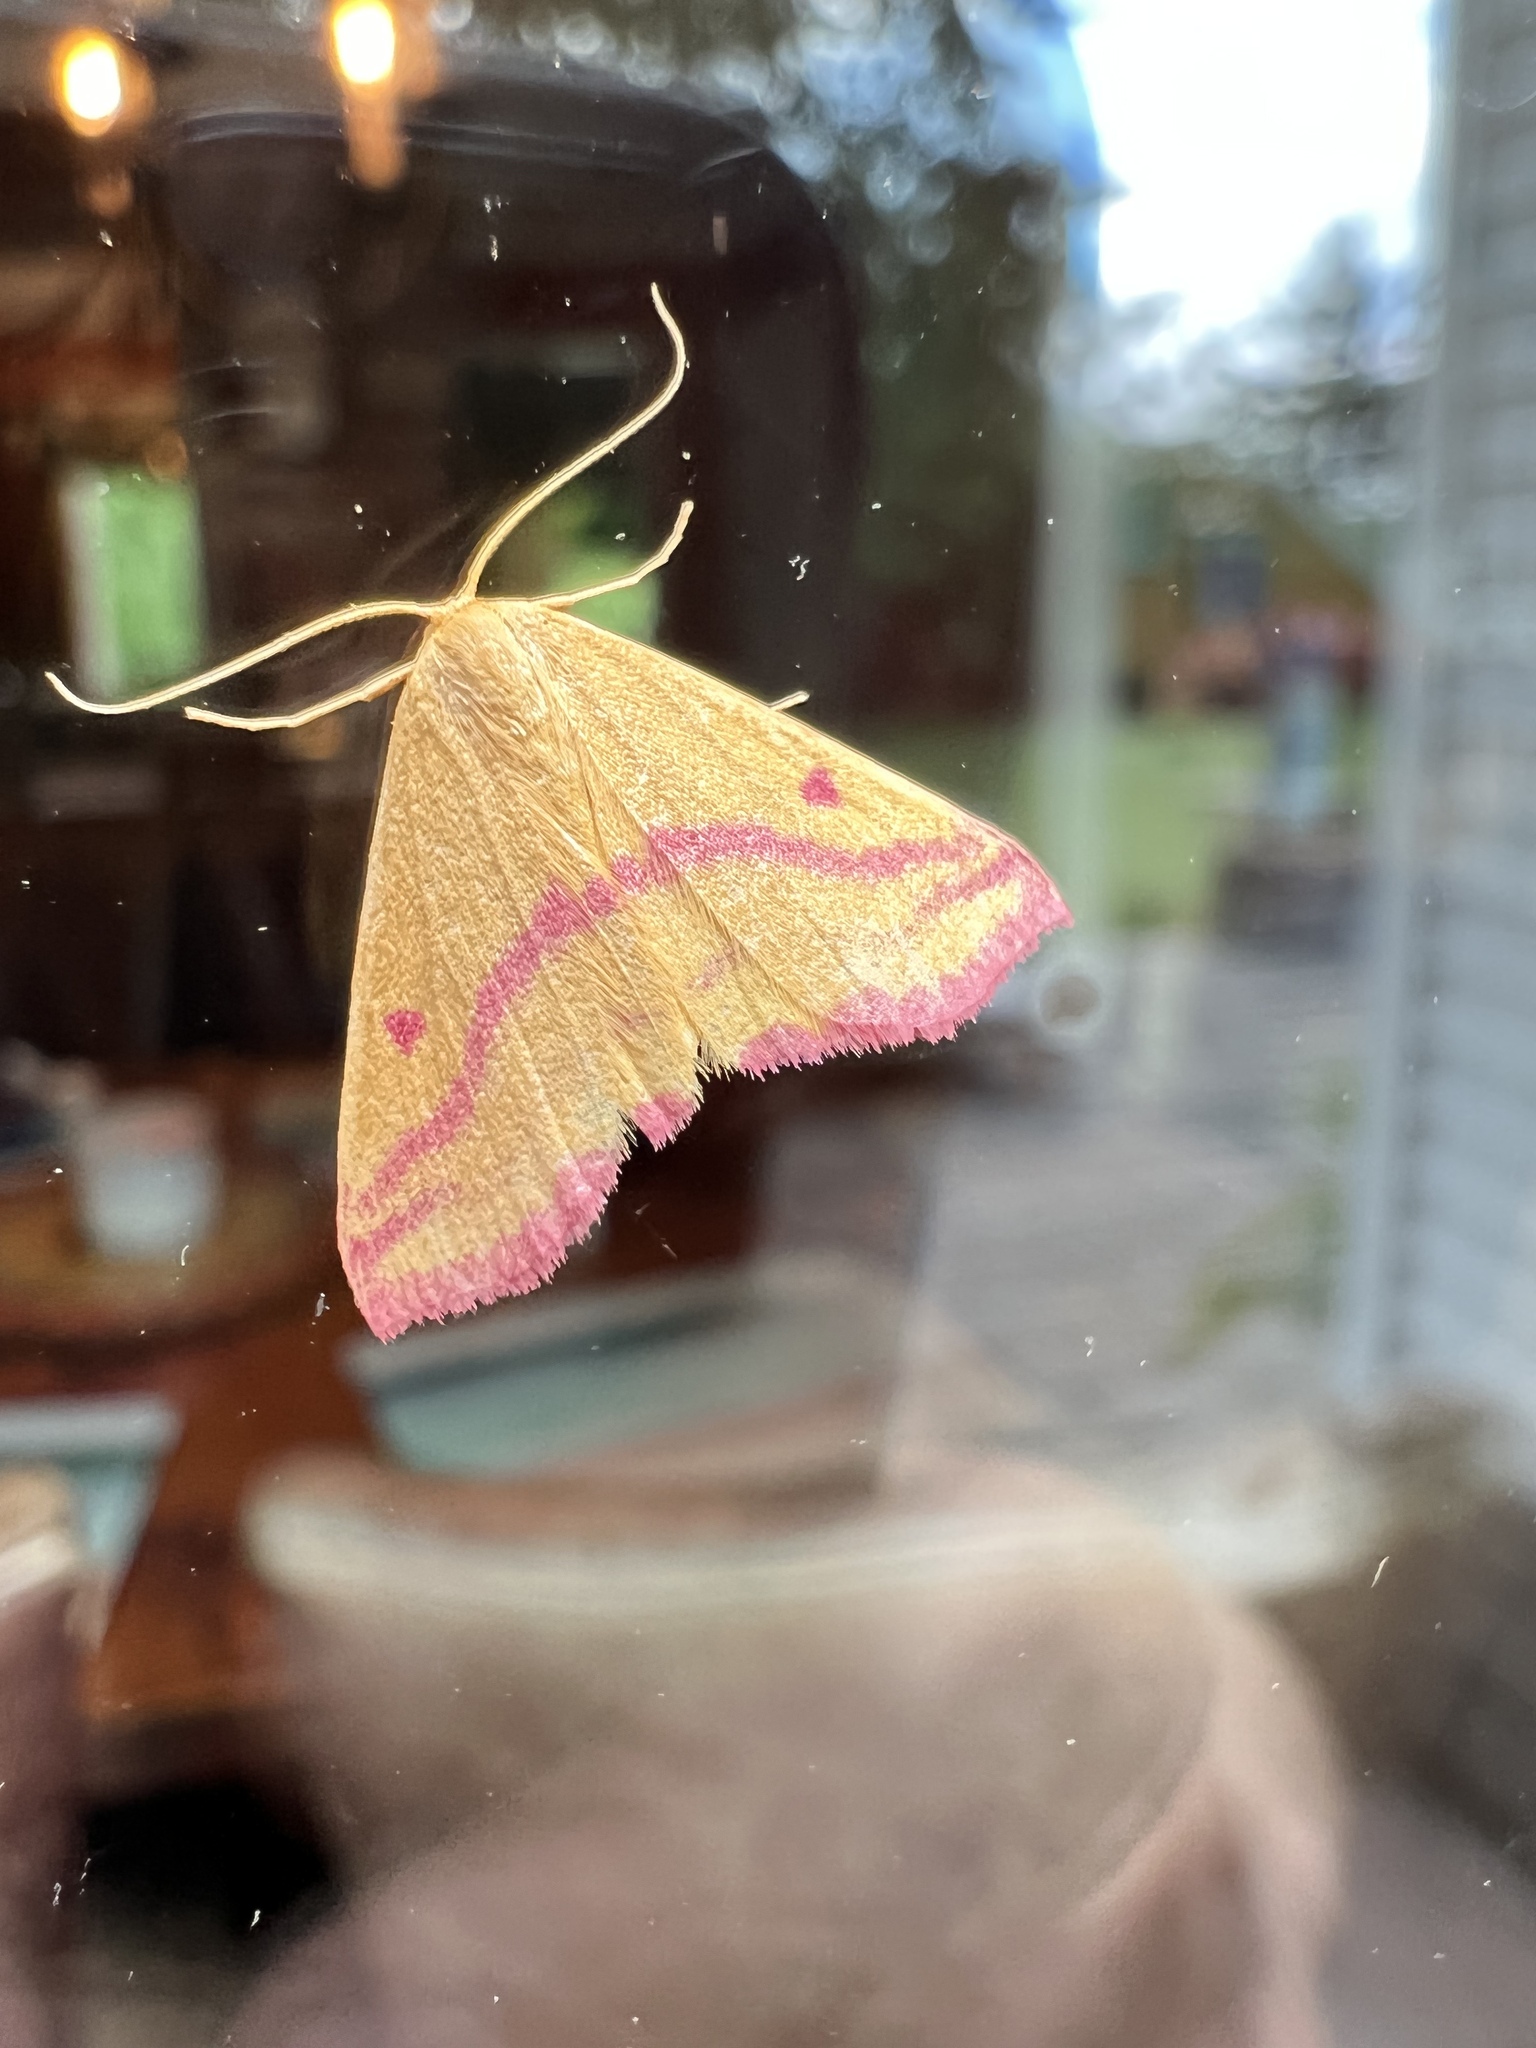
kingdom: Animalia
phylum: Arthropoda
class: Insecta
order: Lepidoptera
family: Geometridae
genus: Haematopis
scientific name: Haematopis grataria
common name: Chickweed geometer
